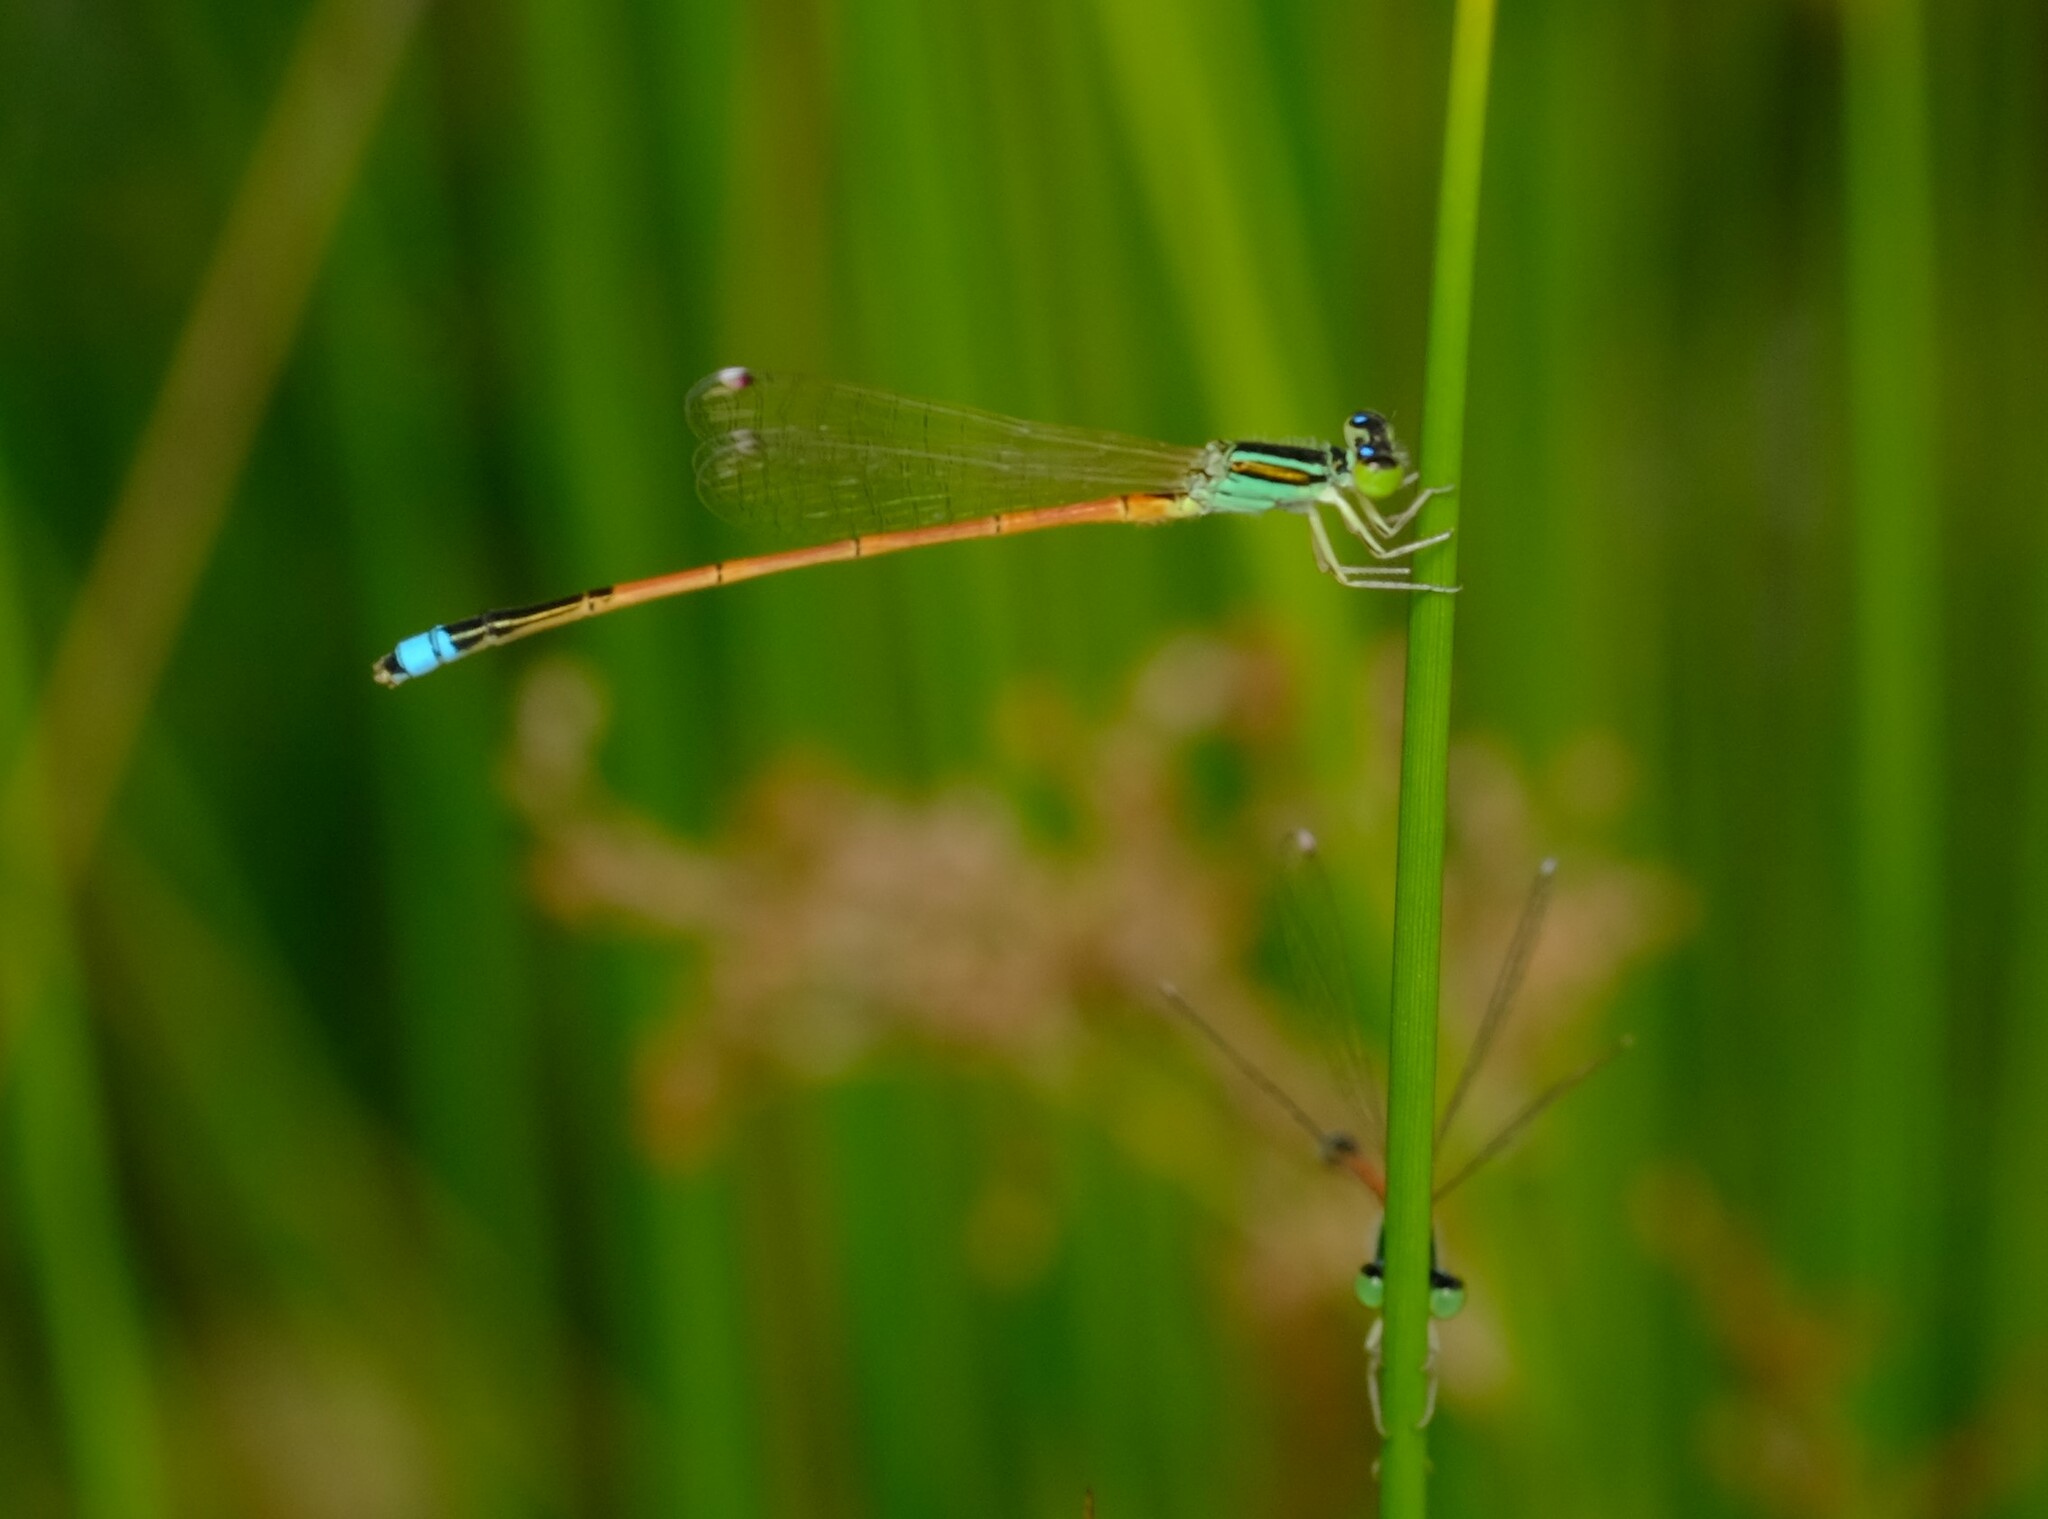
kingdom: Animalia
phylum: Arthropoda
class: Insecta
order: Odonata
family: Coenagrionidae
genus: Ischnura
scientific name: Ischnura aurora
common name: Gossamer damselfly
